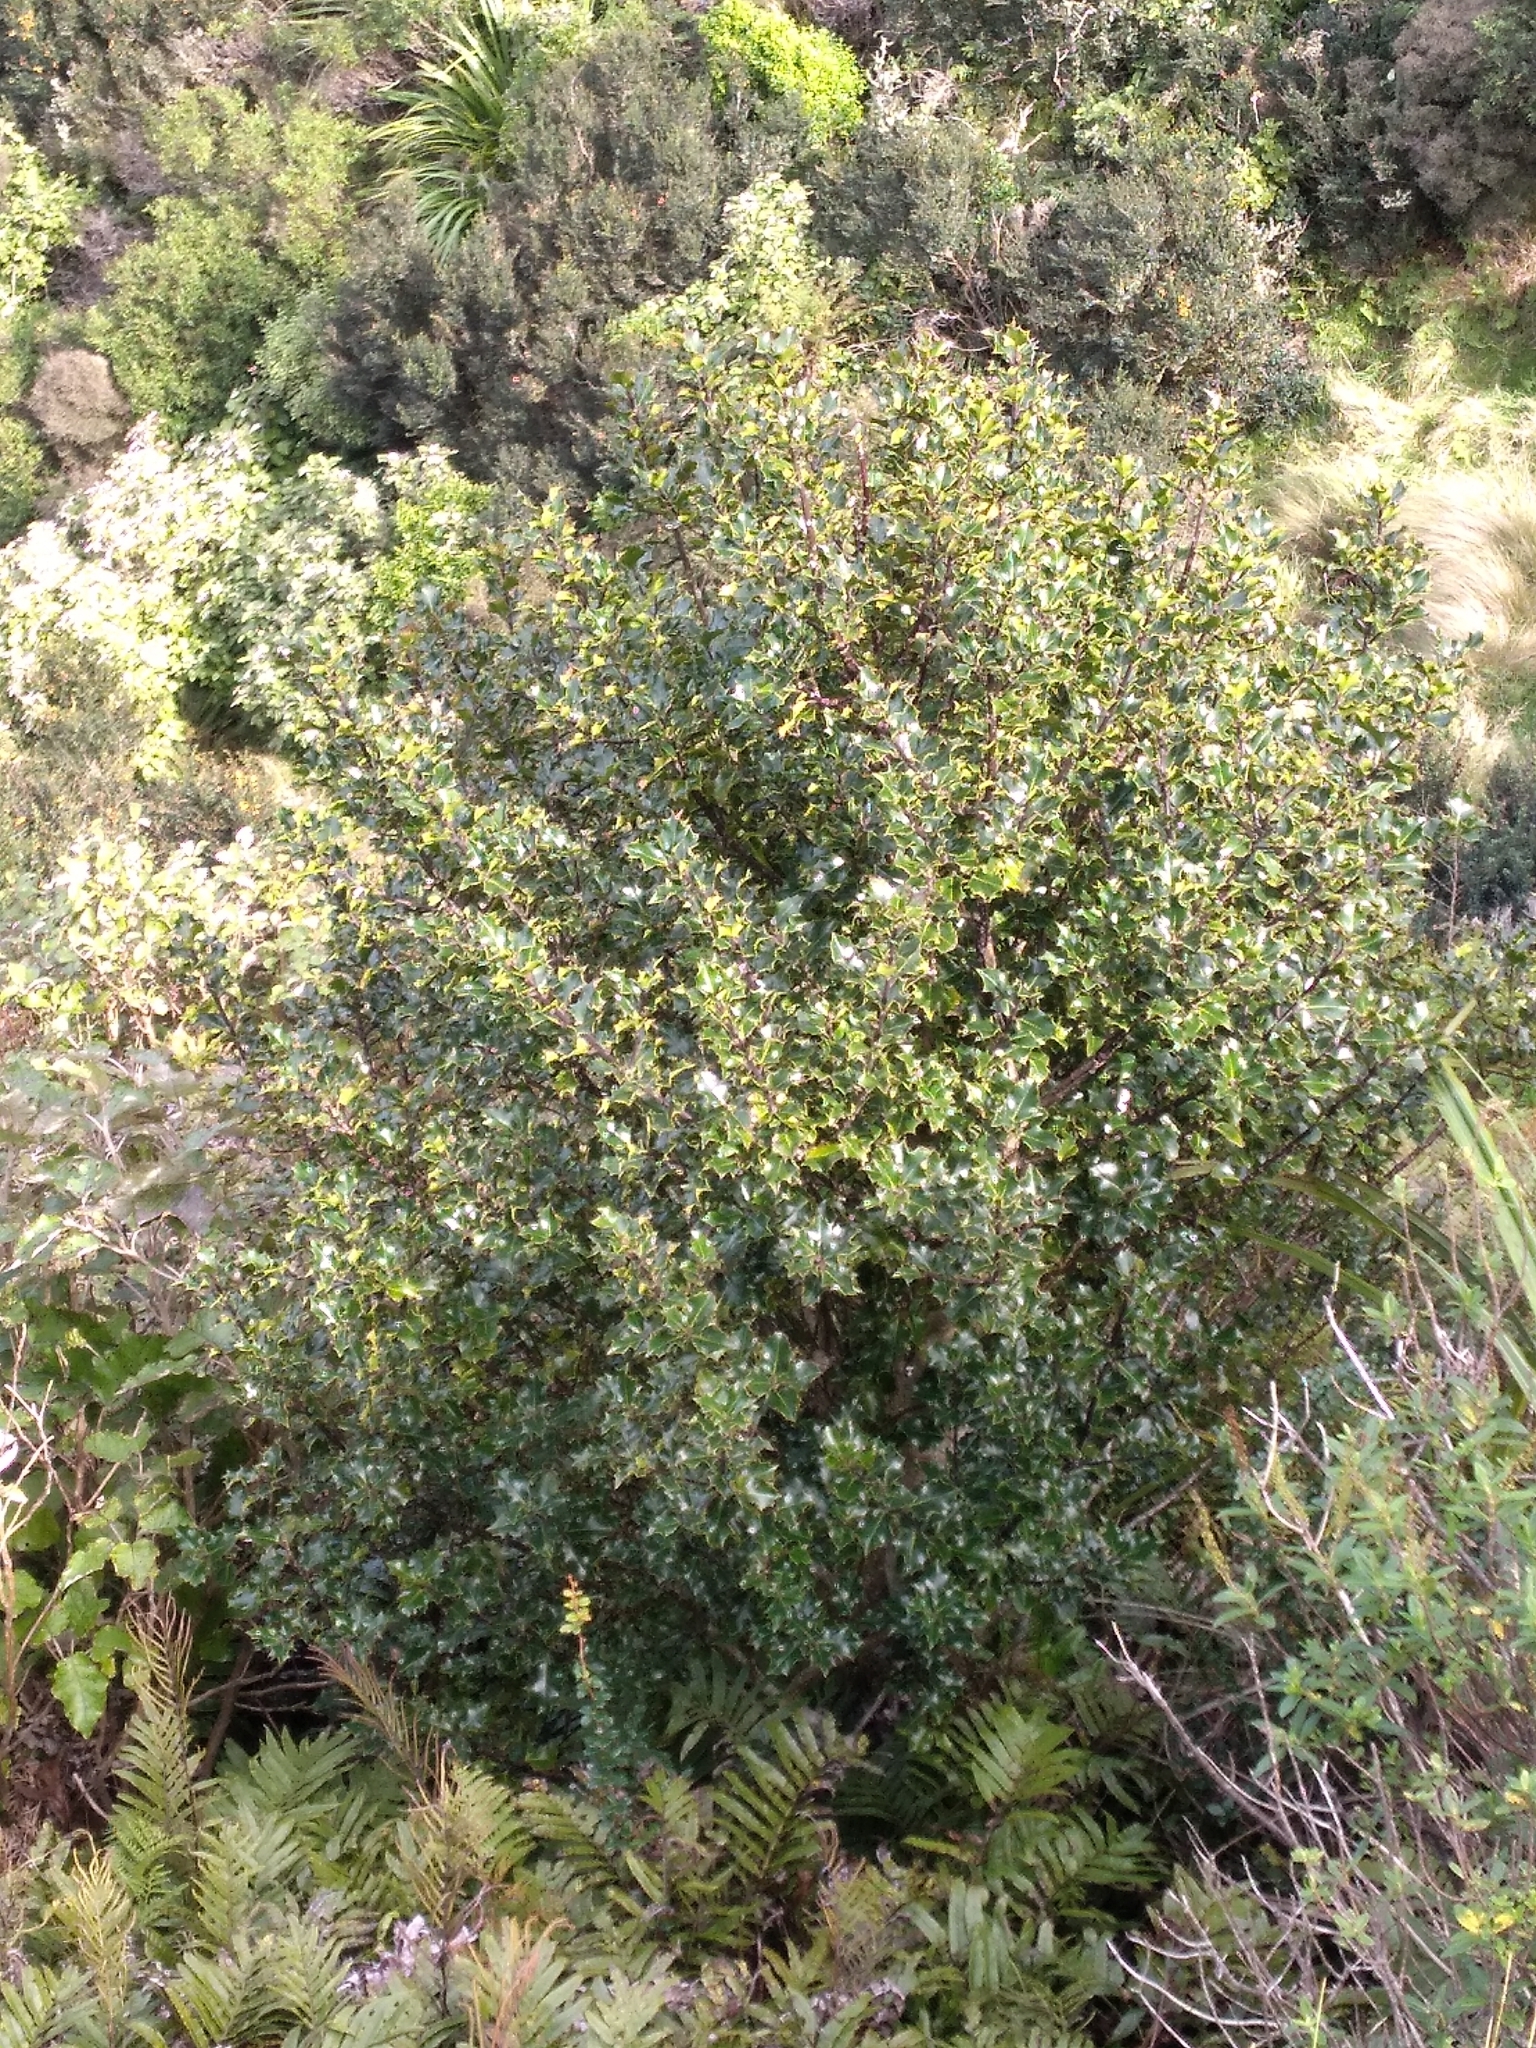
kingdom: Plantae
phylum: Tracheophyta
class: Magnoliopsida
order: Aquifoliales
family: Aquifoliaceae
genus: Ilex
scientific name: Ilex aquifolium
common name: English holly
